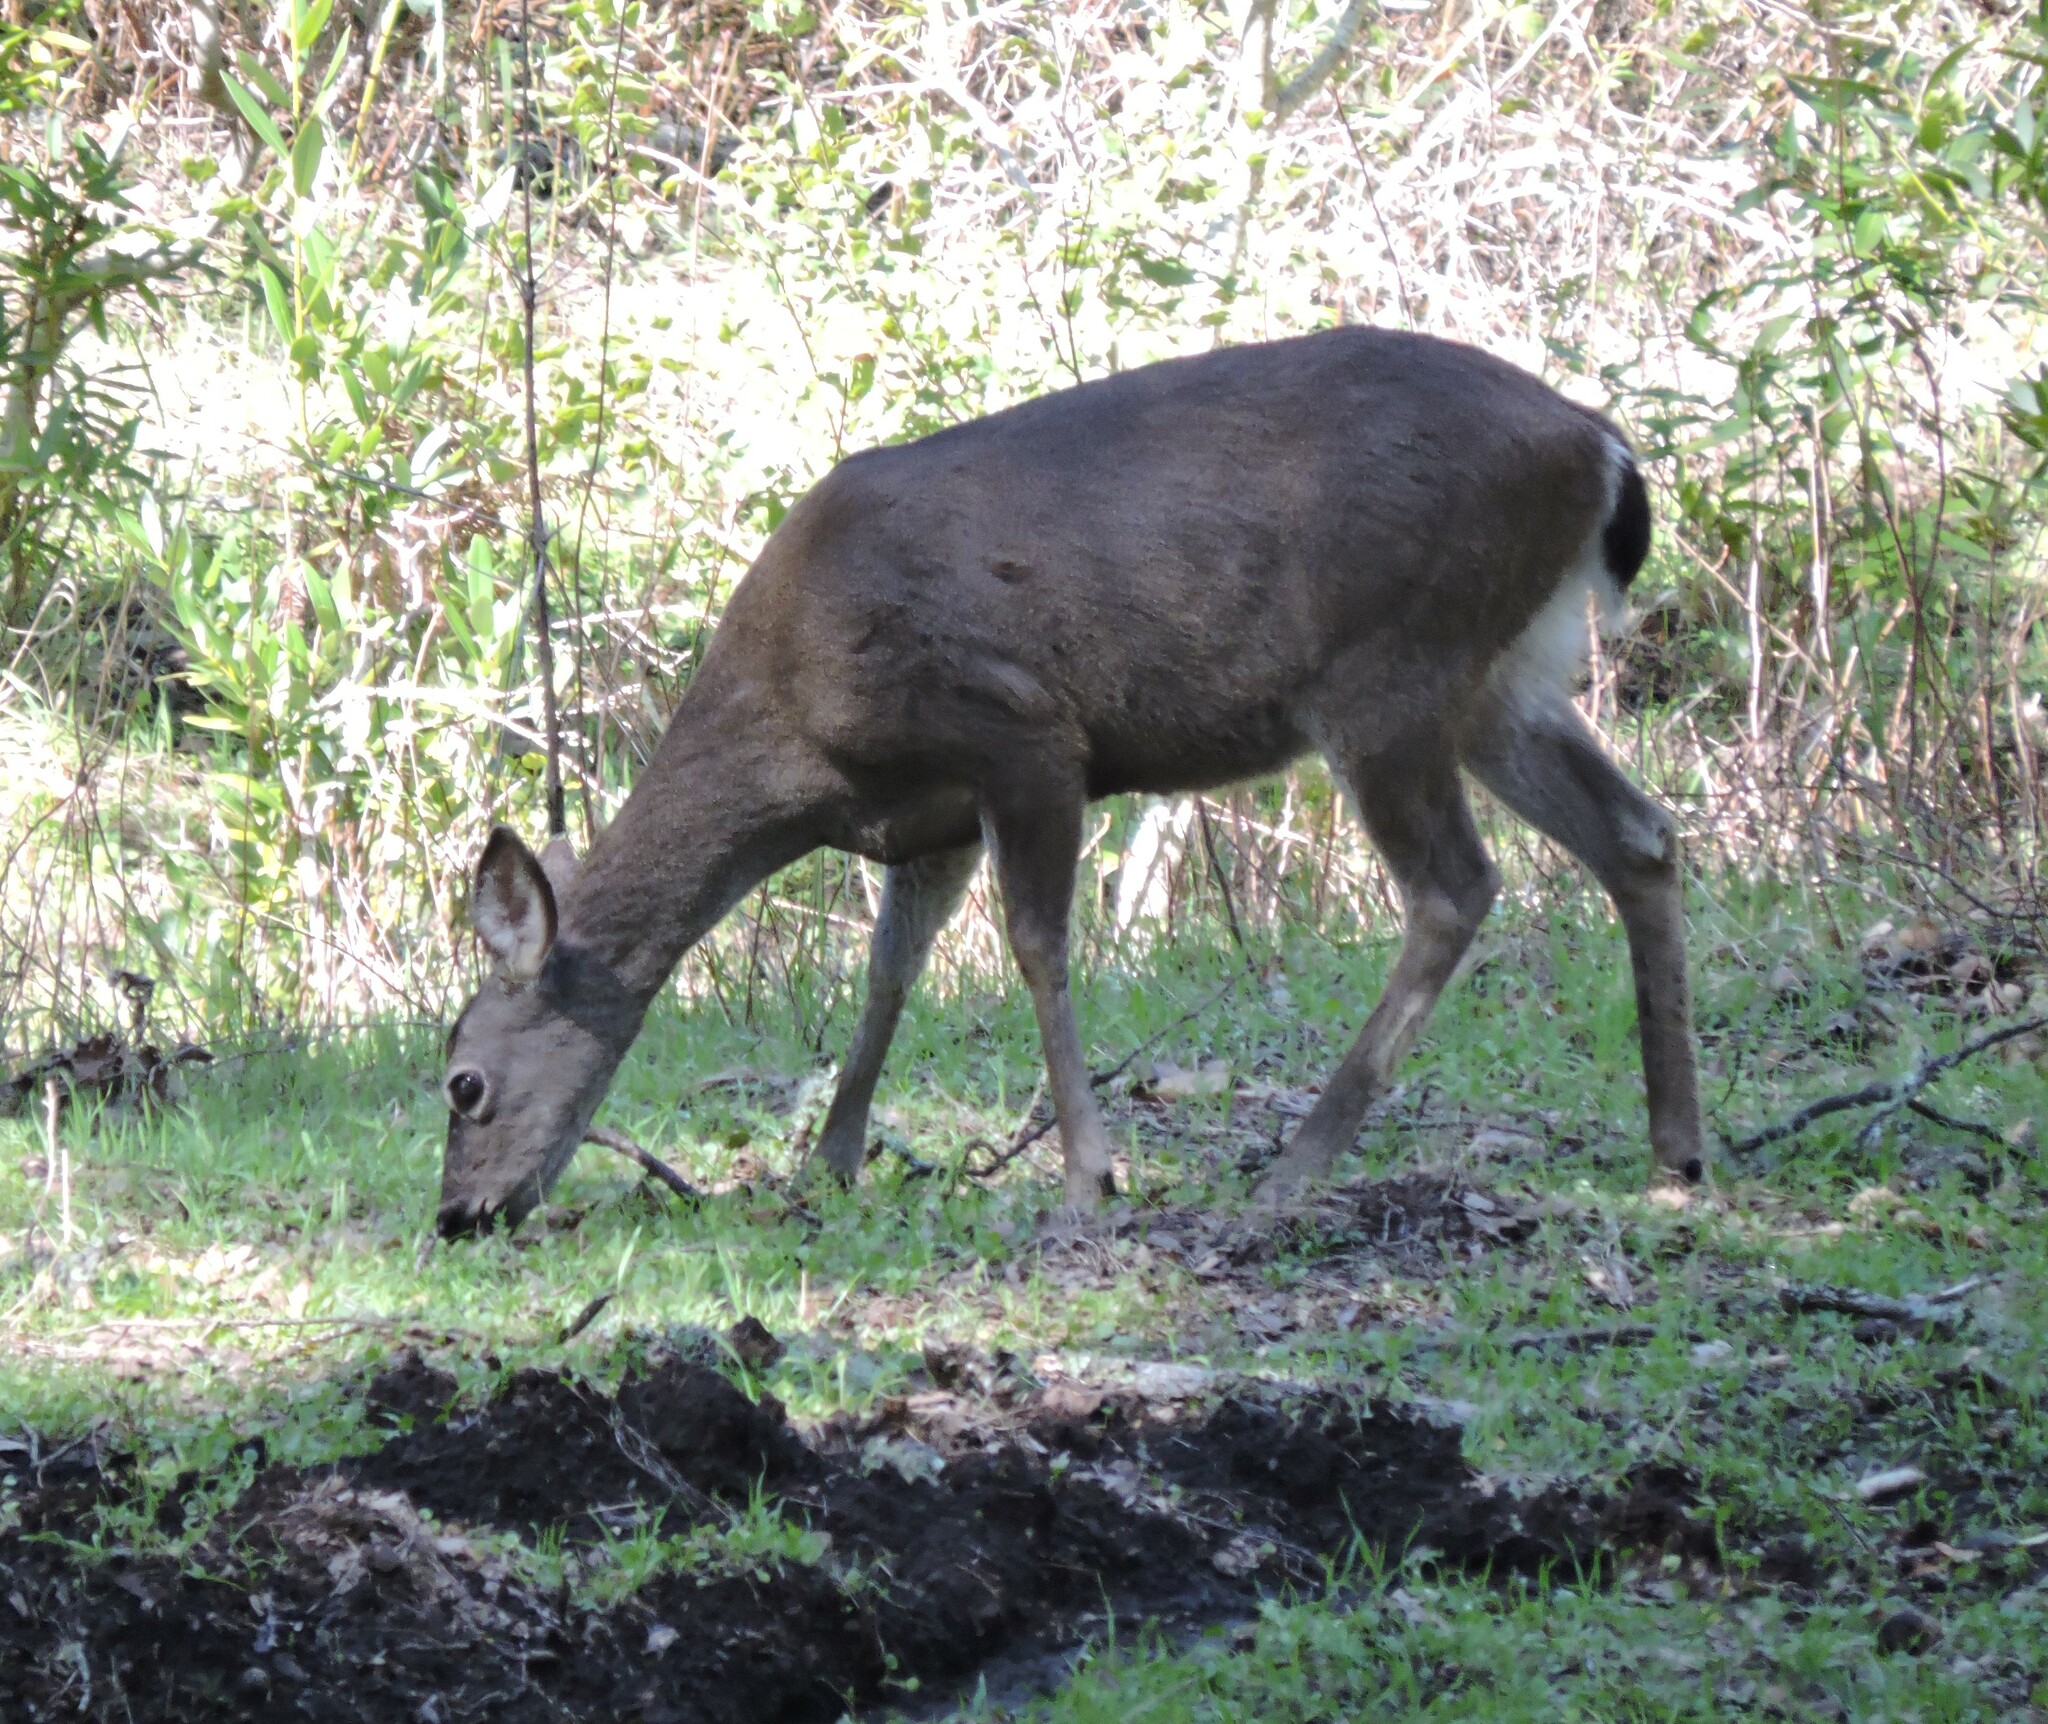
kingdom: Animalia
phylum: Chordata
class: Mammalia
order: Artiodactyla
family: Cervidae
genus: Odocoileus
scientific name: Odocoileus hemionus
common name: Mule deer
